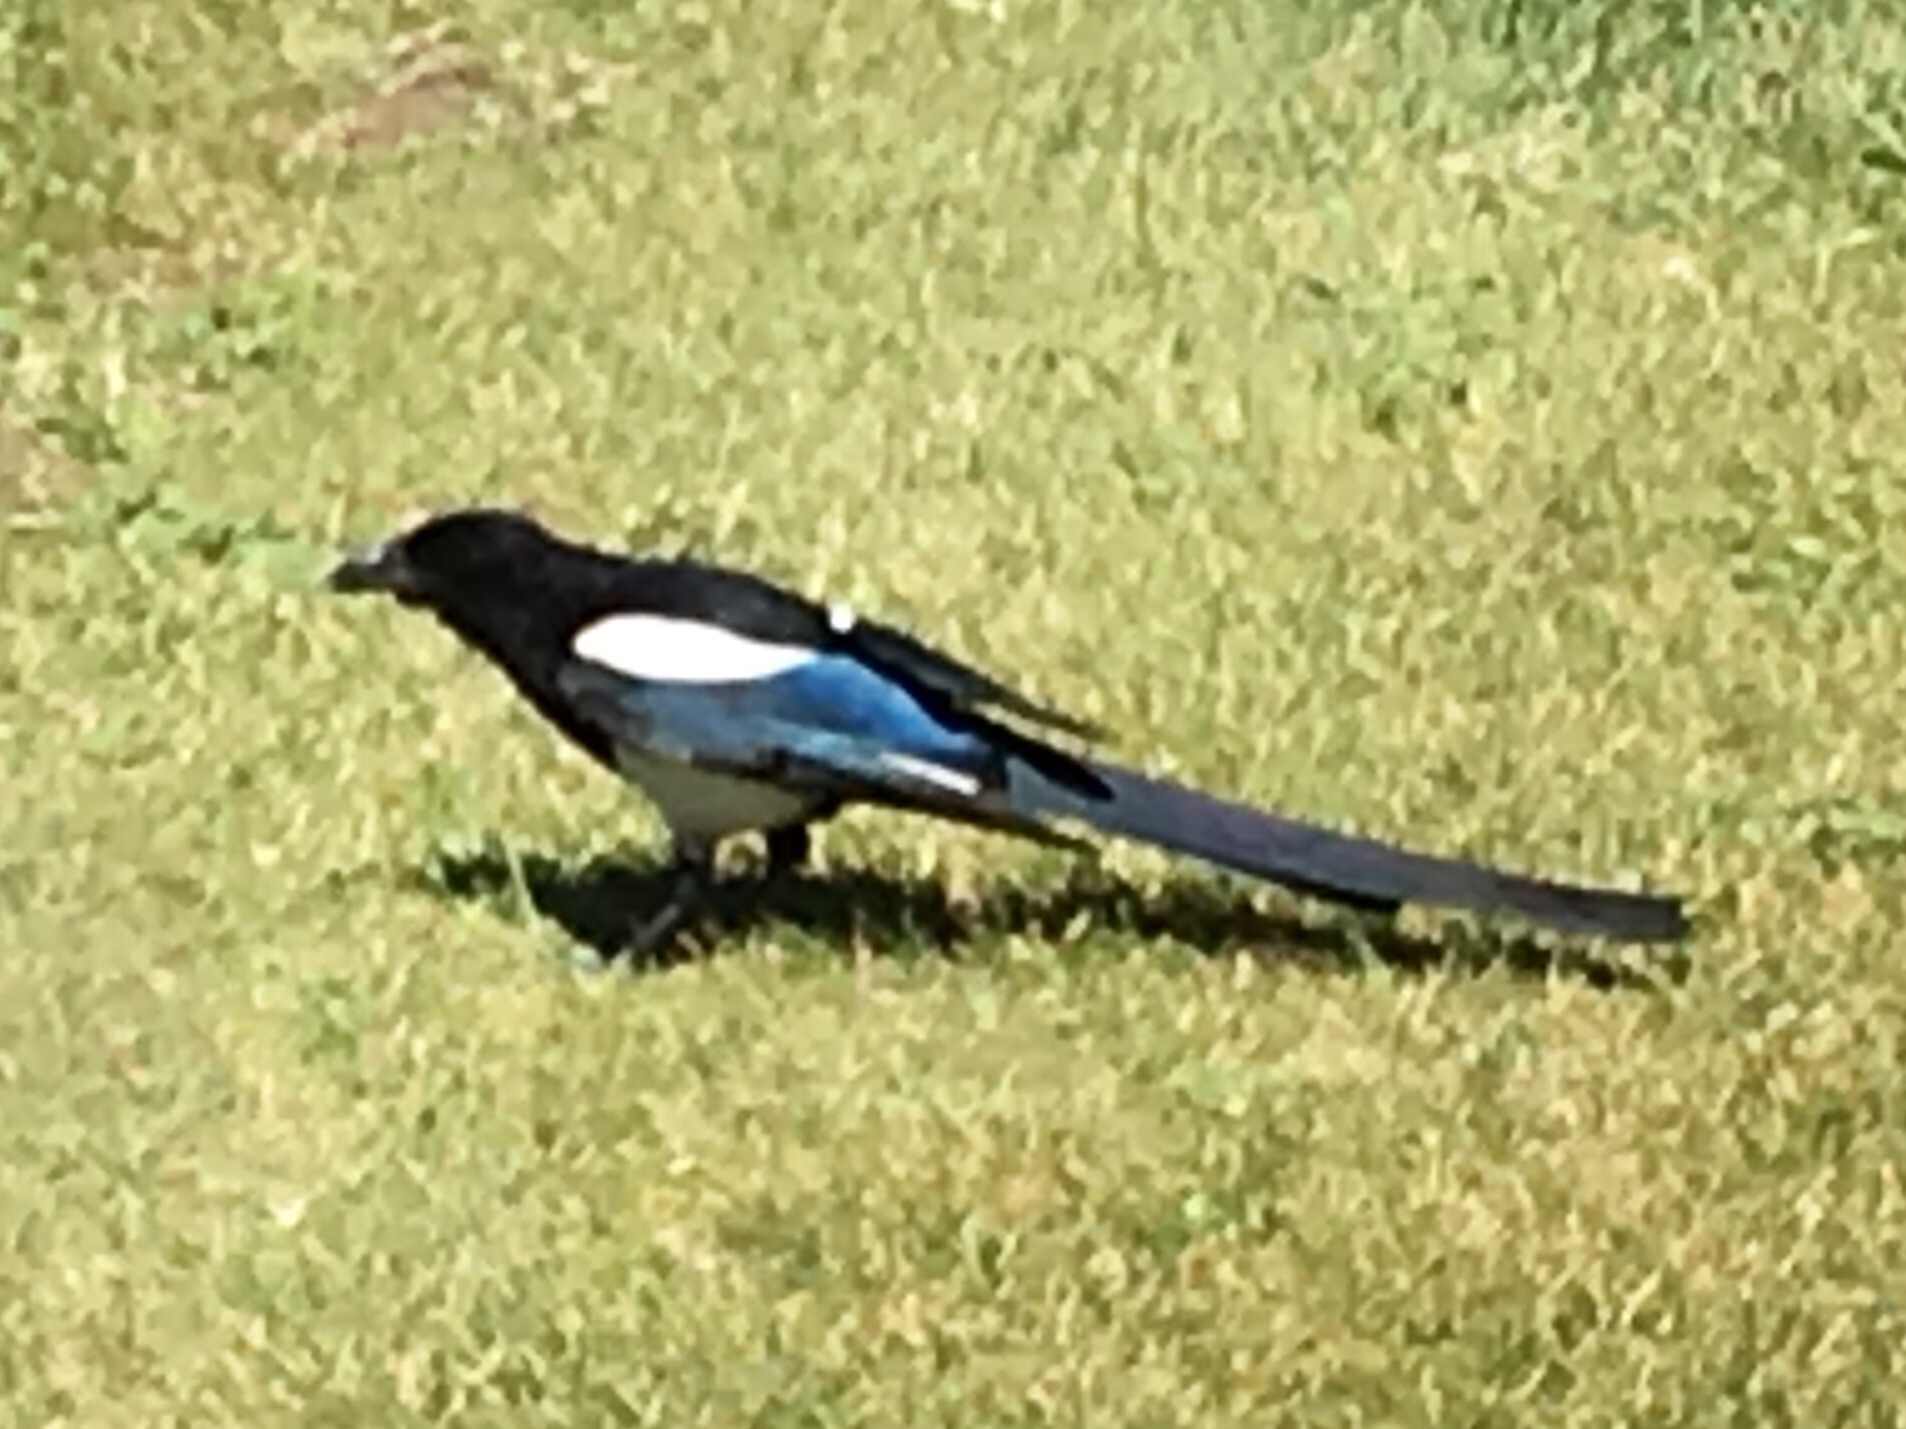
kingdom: Animalia
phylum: Chordata
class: Aves
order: Passeriformes
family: Corvidae
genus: Pica
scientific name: Pica hudsonia
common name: Black-billed magpie
